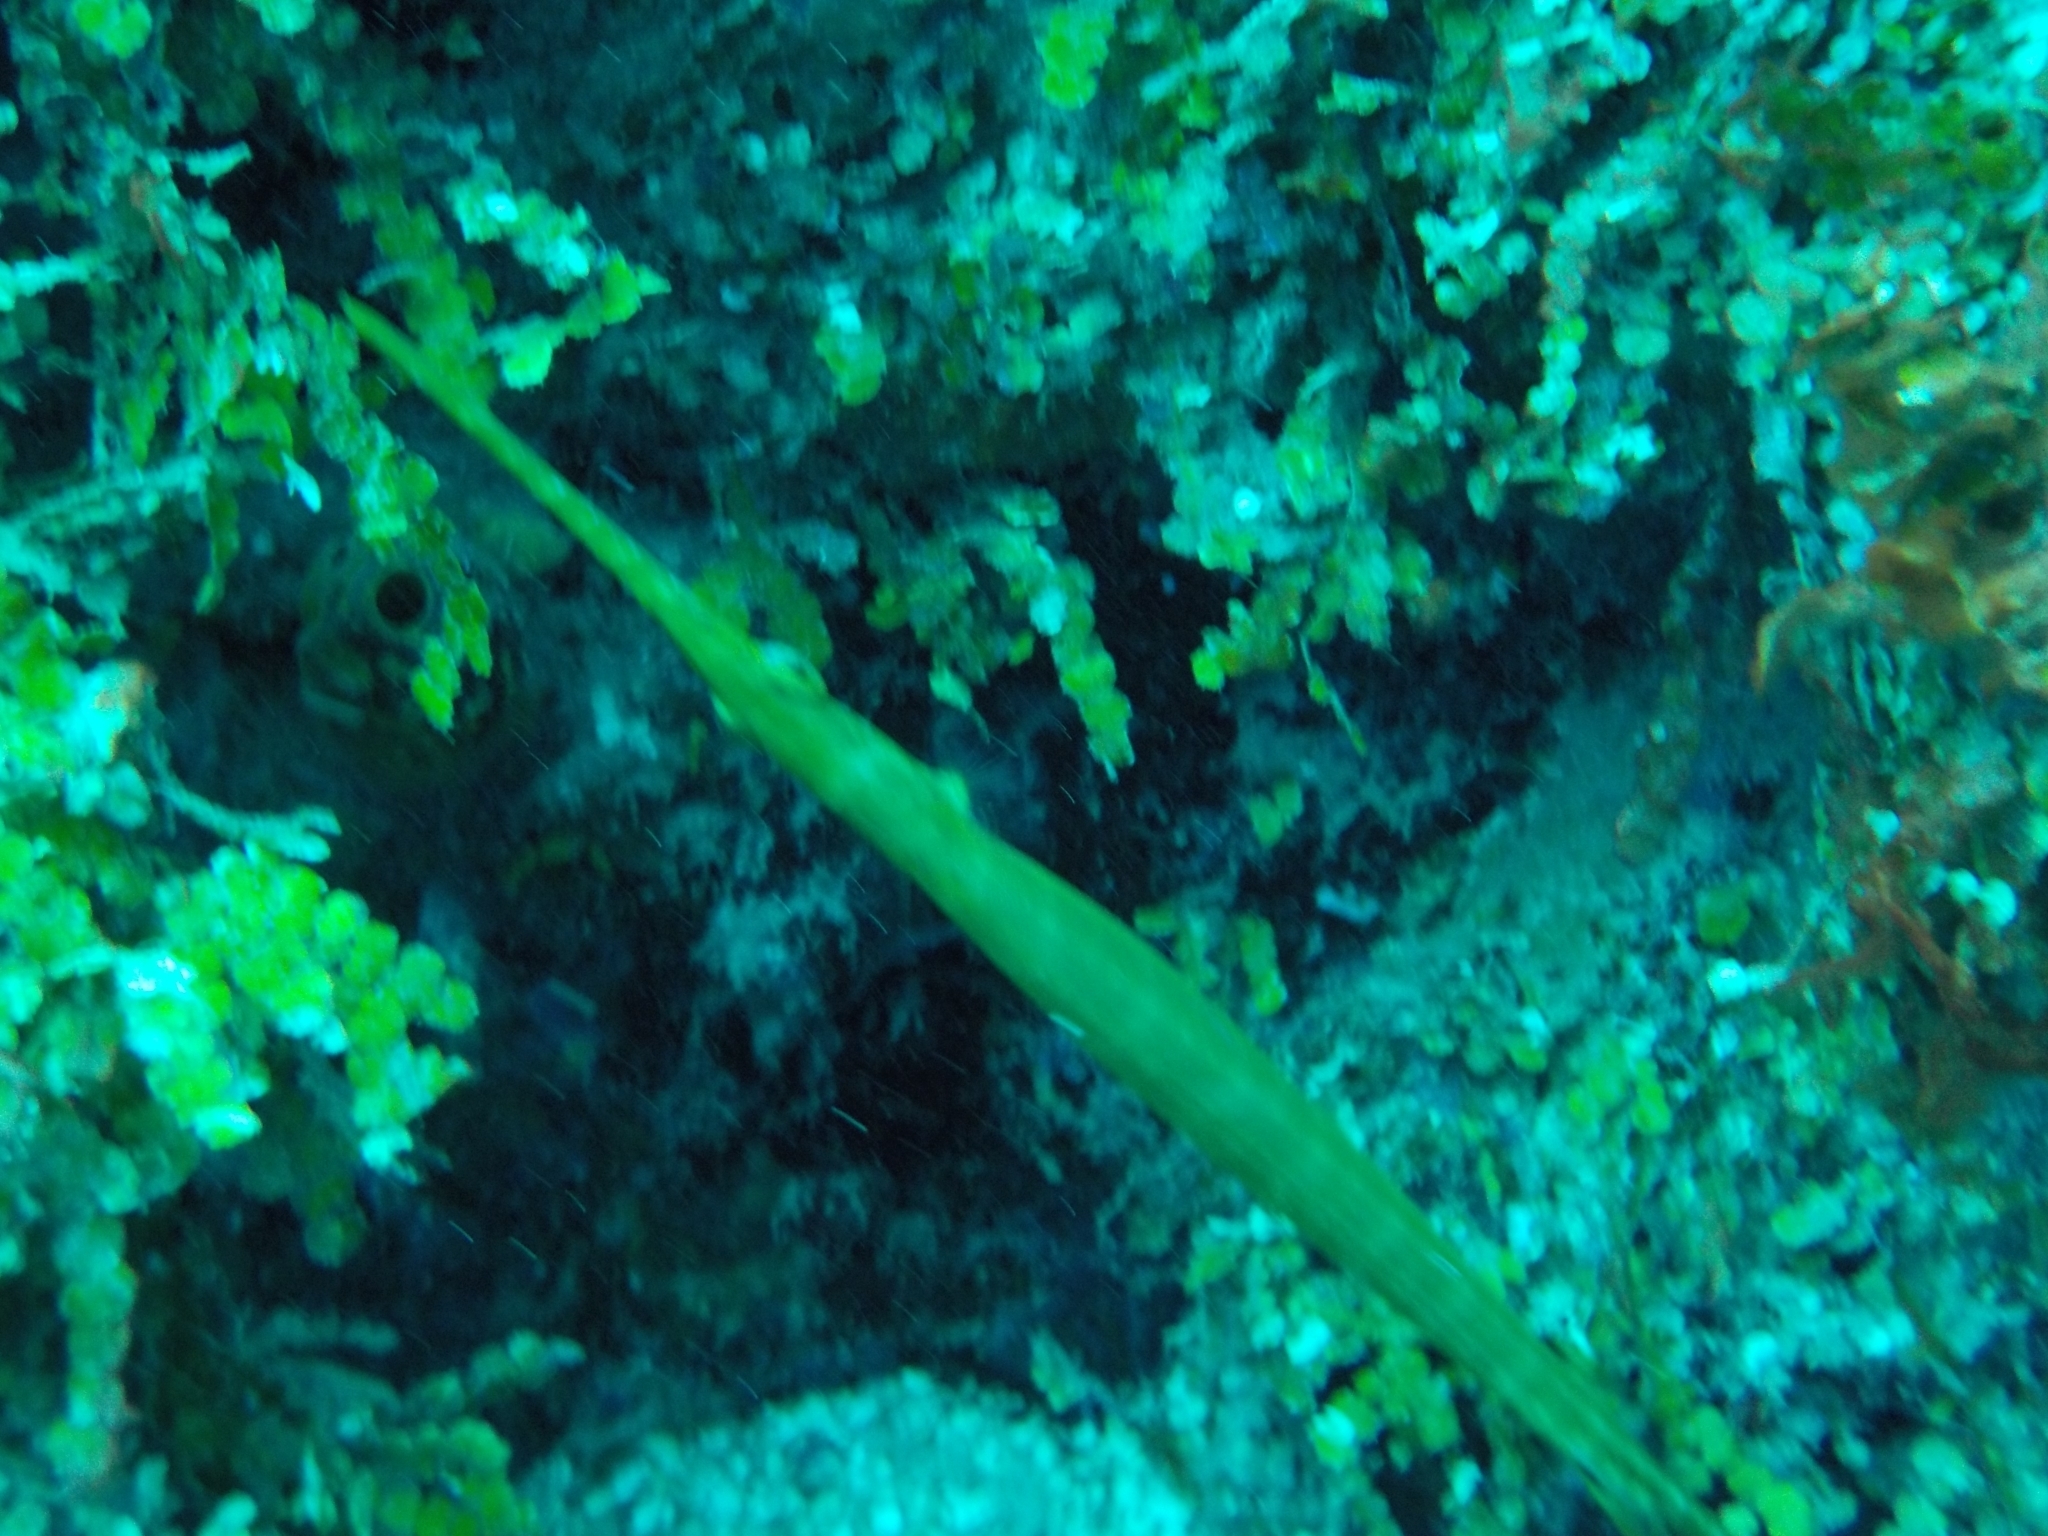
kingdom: Animalia
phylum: Chordata
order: Syngnathiformes
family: Aulostomidae
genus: Aulostomus
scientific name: Aulostomus maculatus
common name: West atlantic trumpetfish
